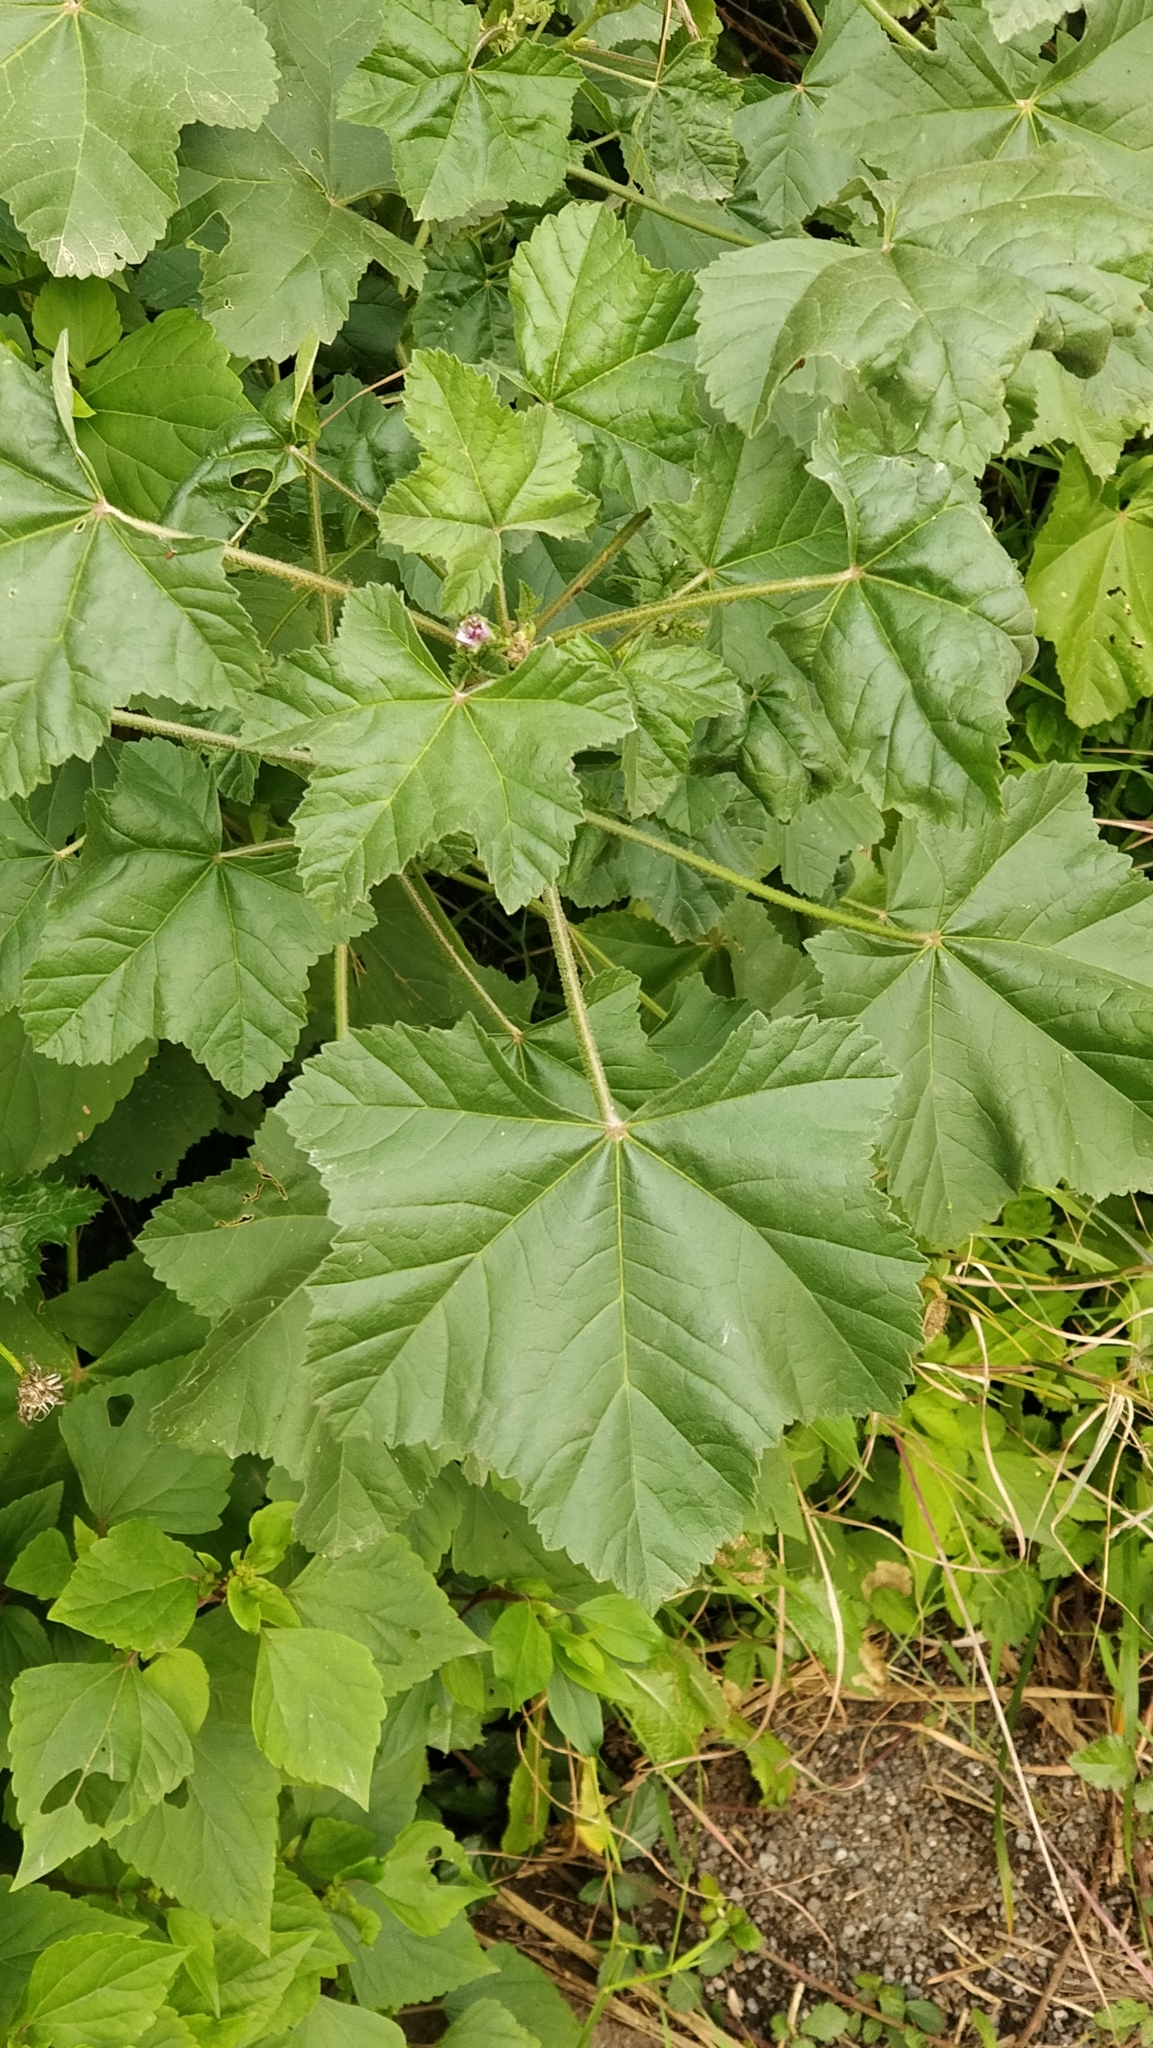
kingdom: Plantae
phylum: Tracheophyta
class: Magnoliopsida
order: Malvales
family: Malvaceae
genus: Malva
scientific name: Malva multiflora
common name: Cheeseweed
